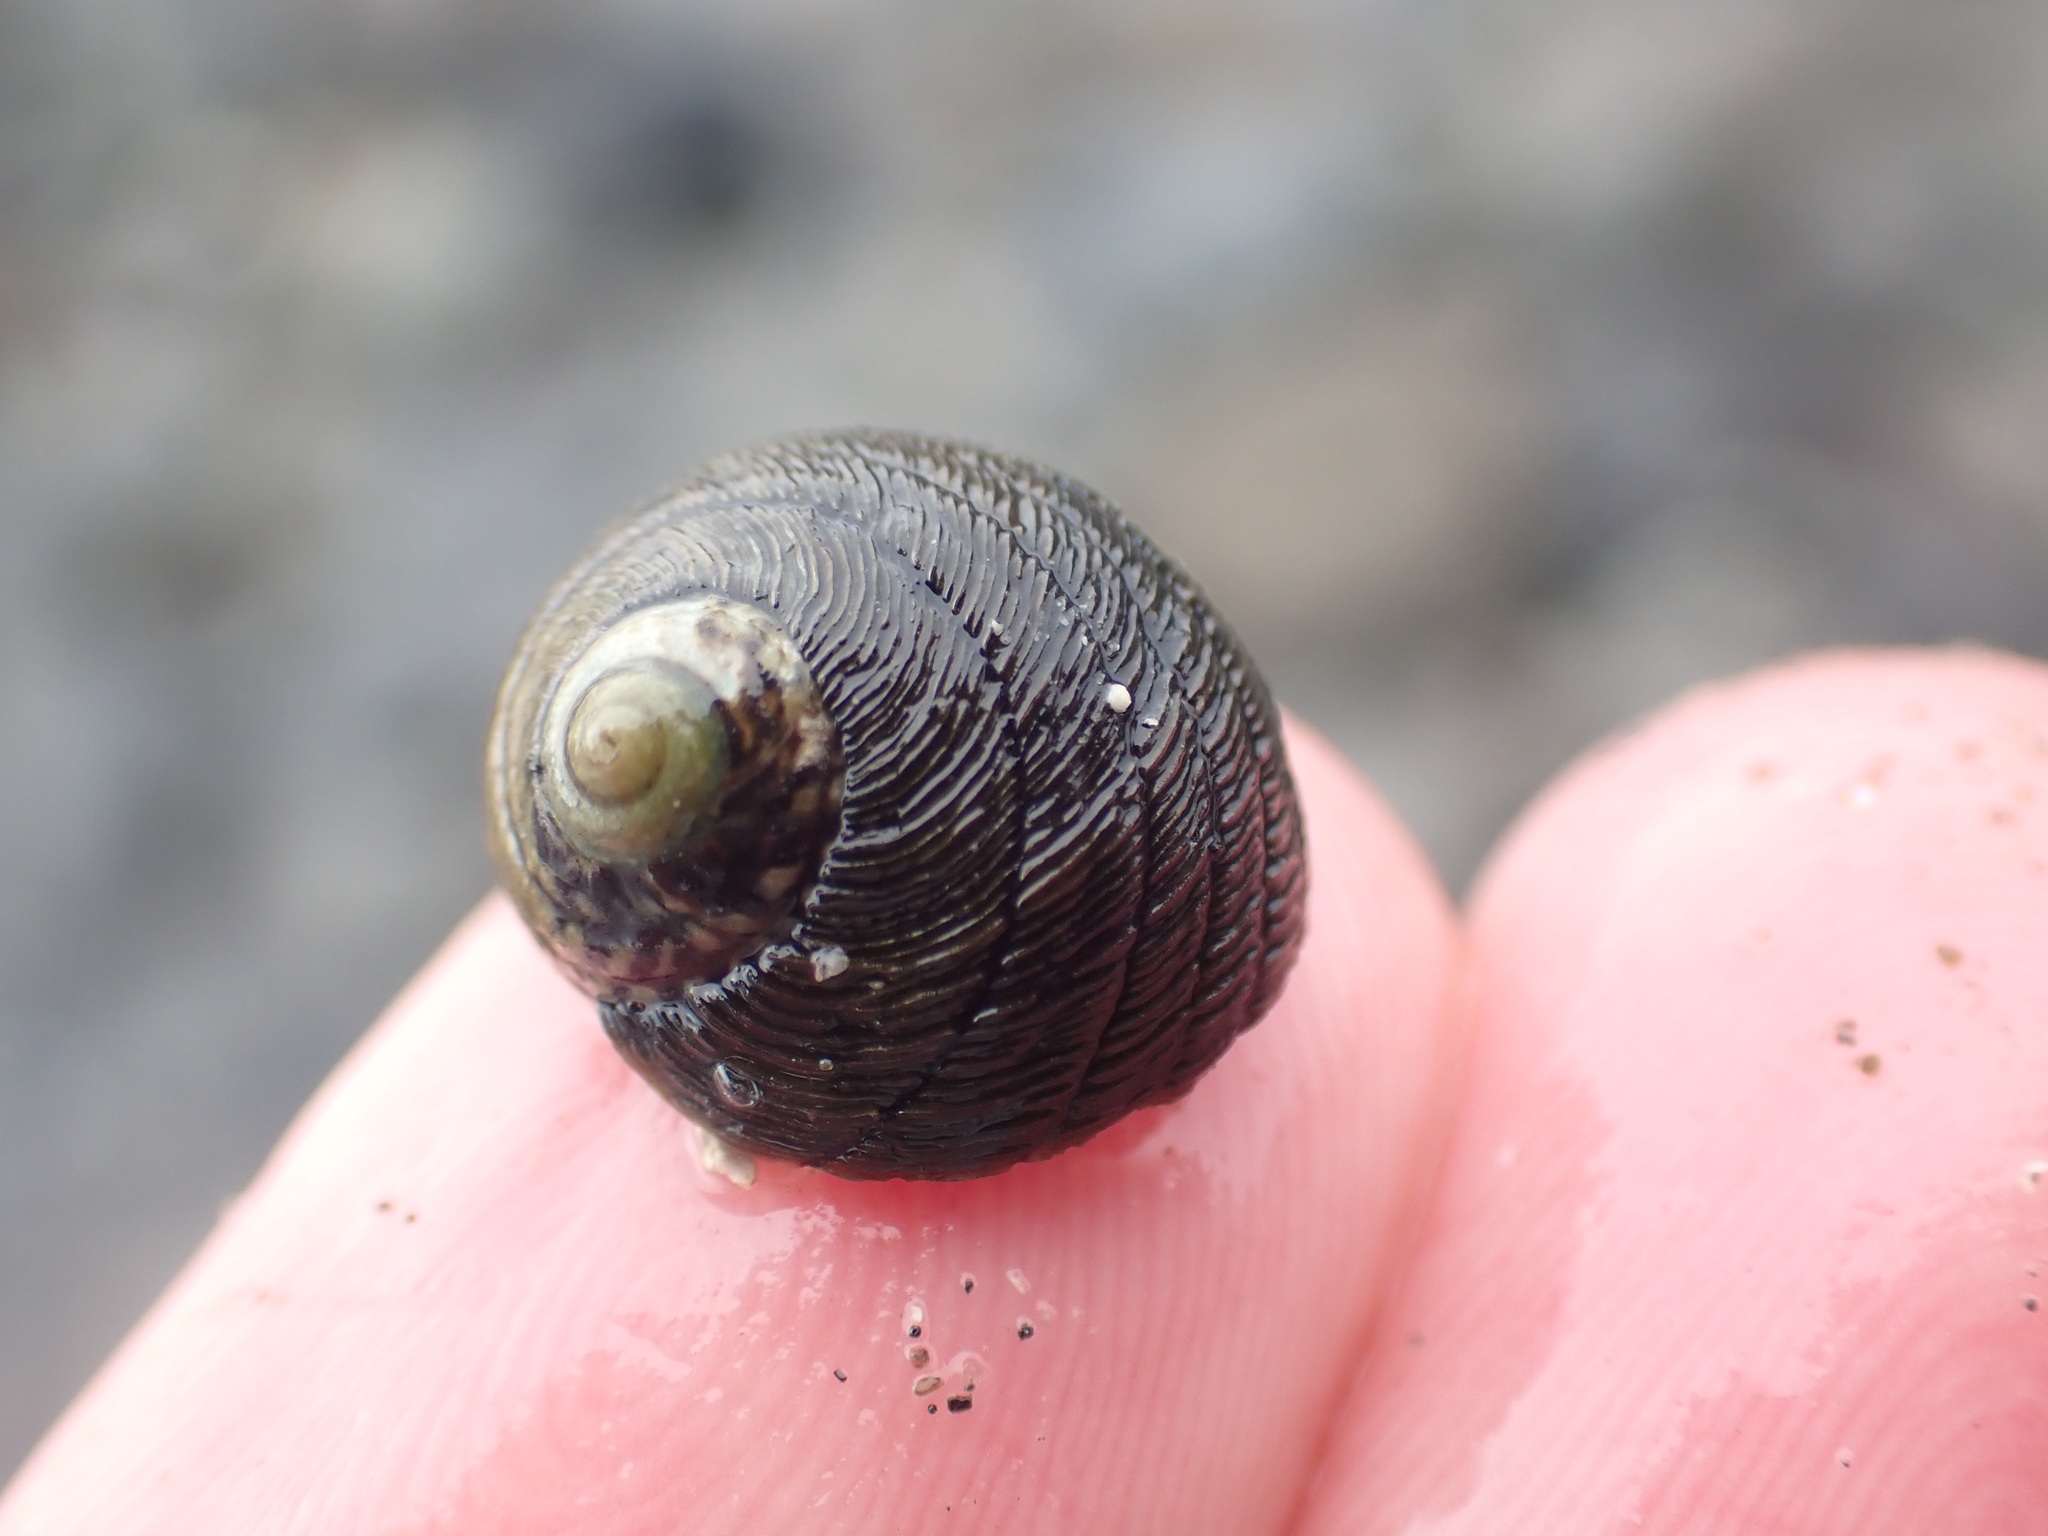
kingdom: Animalia
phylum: Mollusca
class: Gastropoda
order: Trochida
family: Trochidae
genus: Diloma
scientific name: Diloma aethiops
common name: Scorched monodont
